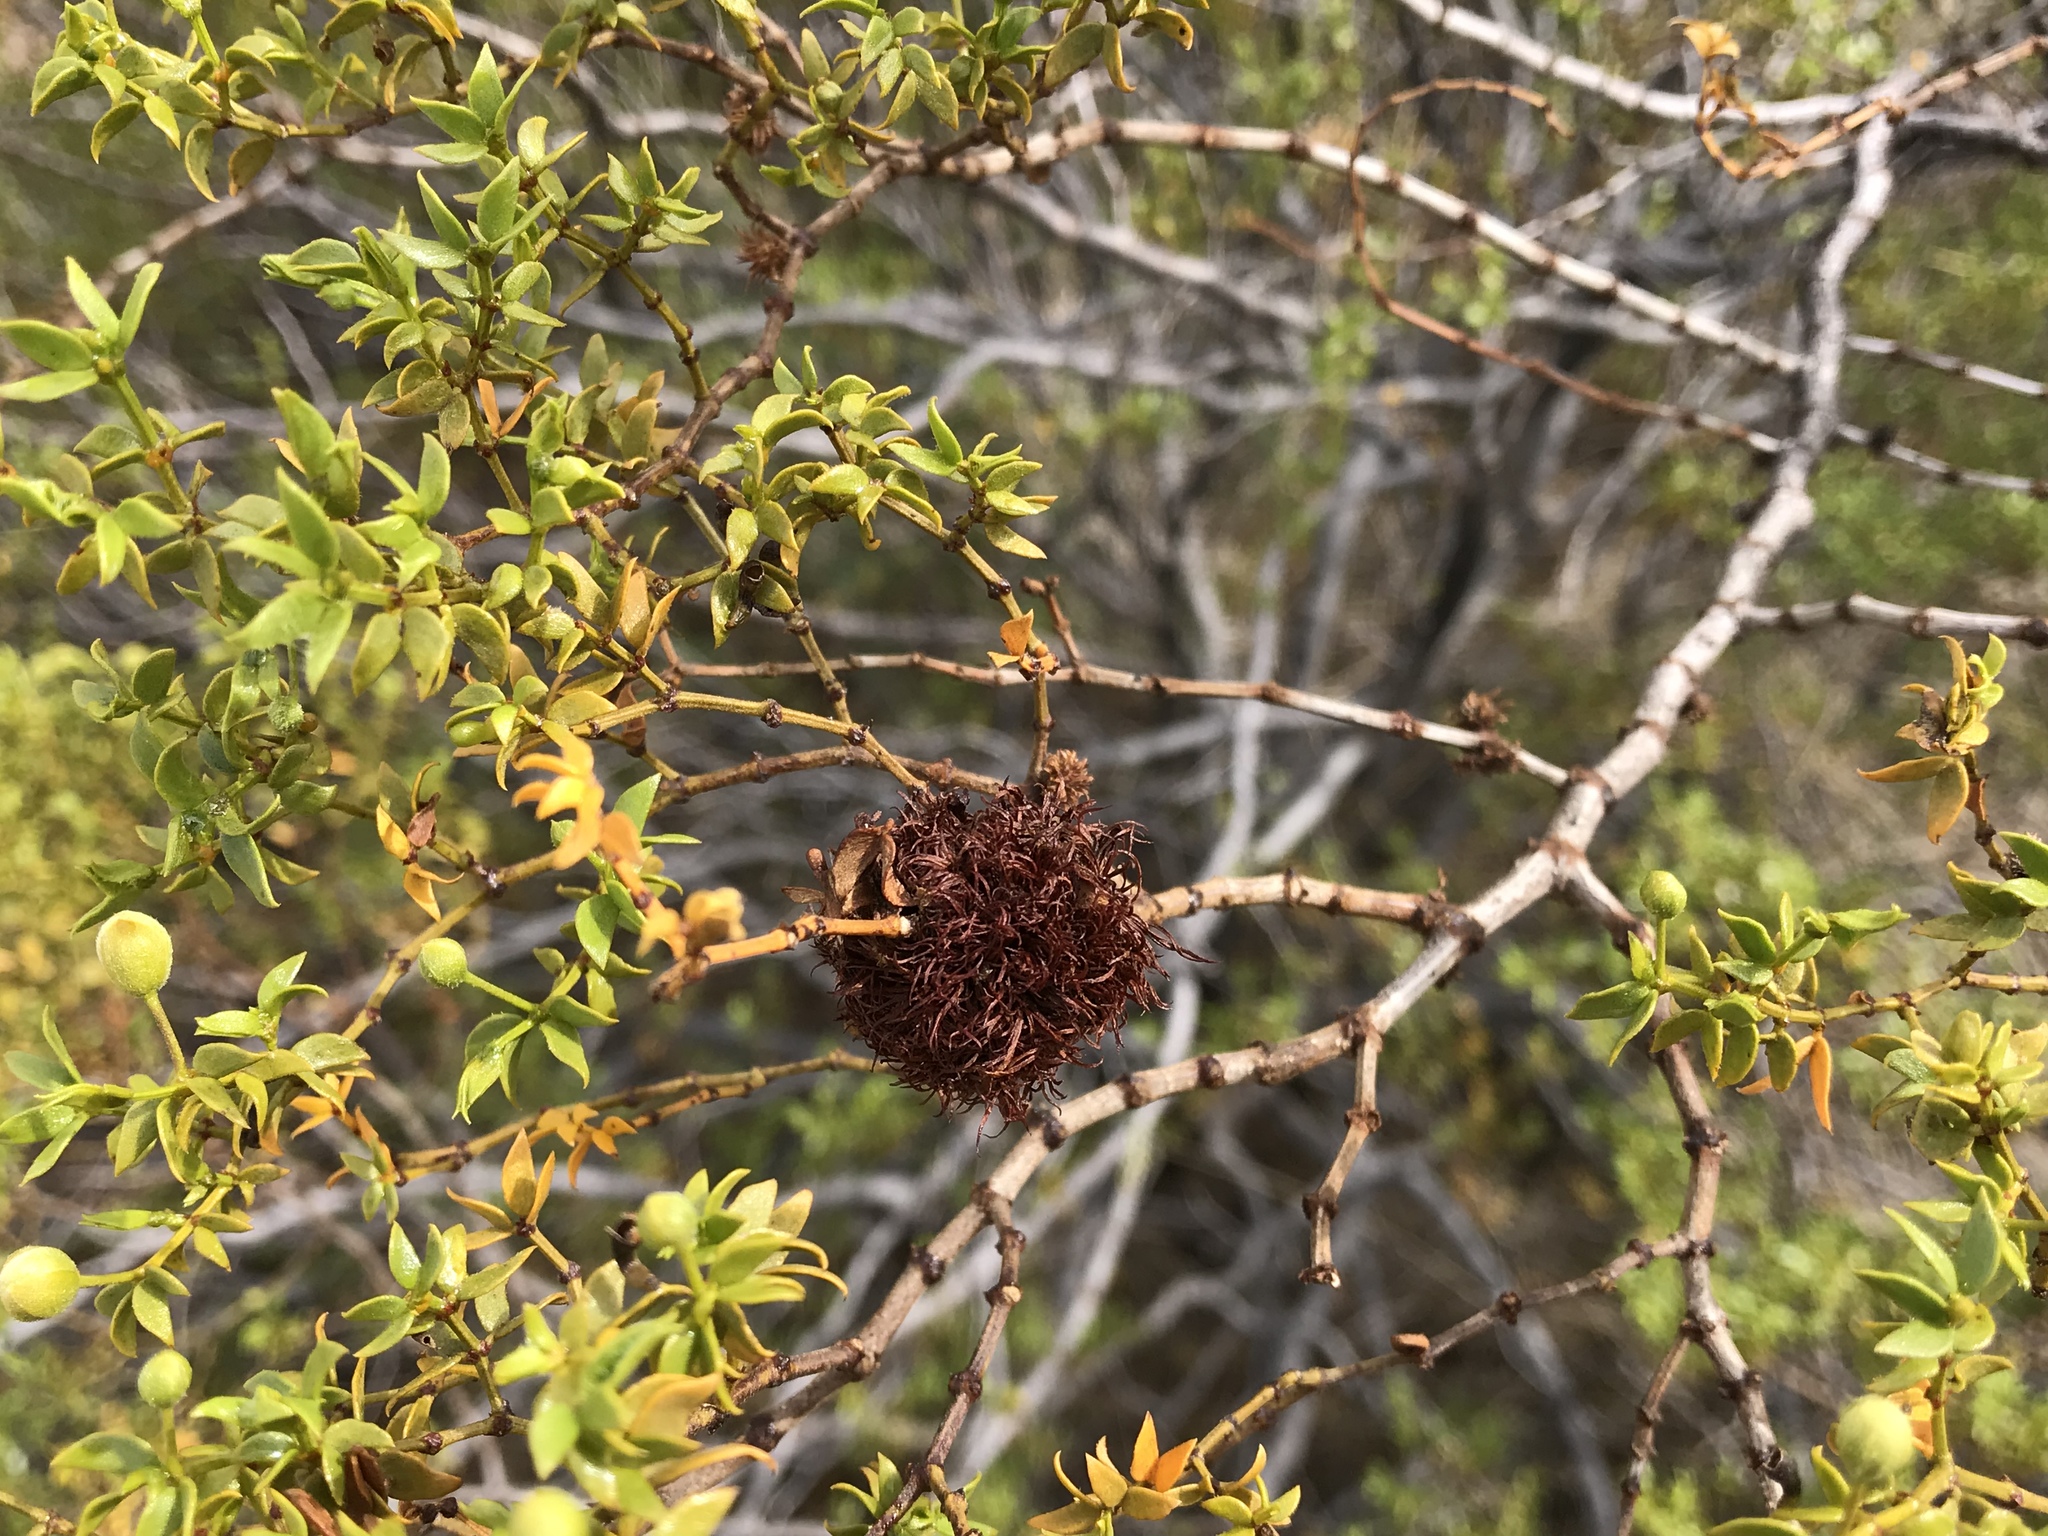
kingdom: Animalia
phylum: Arthropoda
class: Insecta
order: Diptera
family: Cecidomyiidae
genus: Asphondylia
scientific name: Asphondylia auripila
